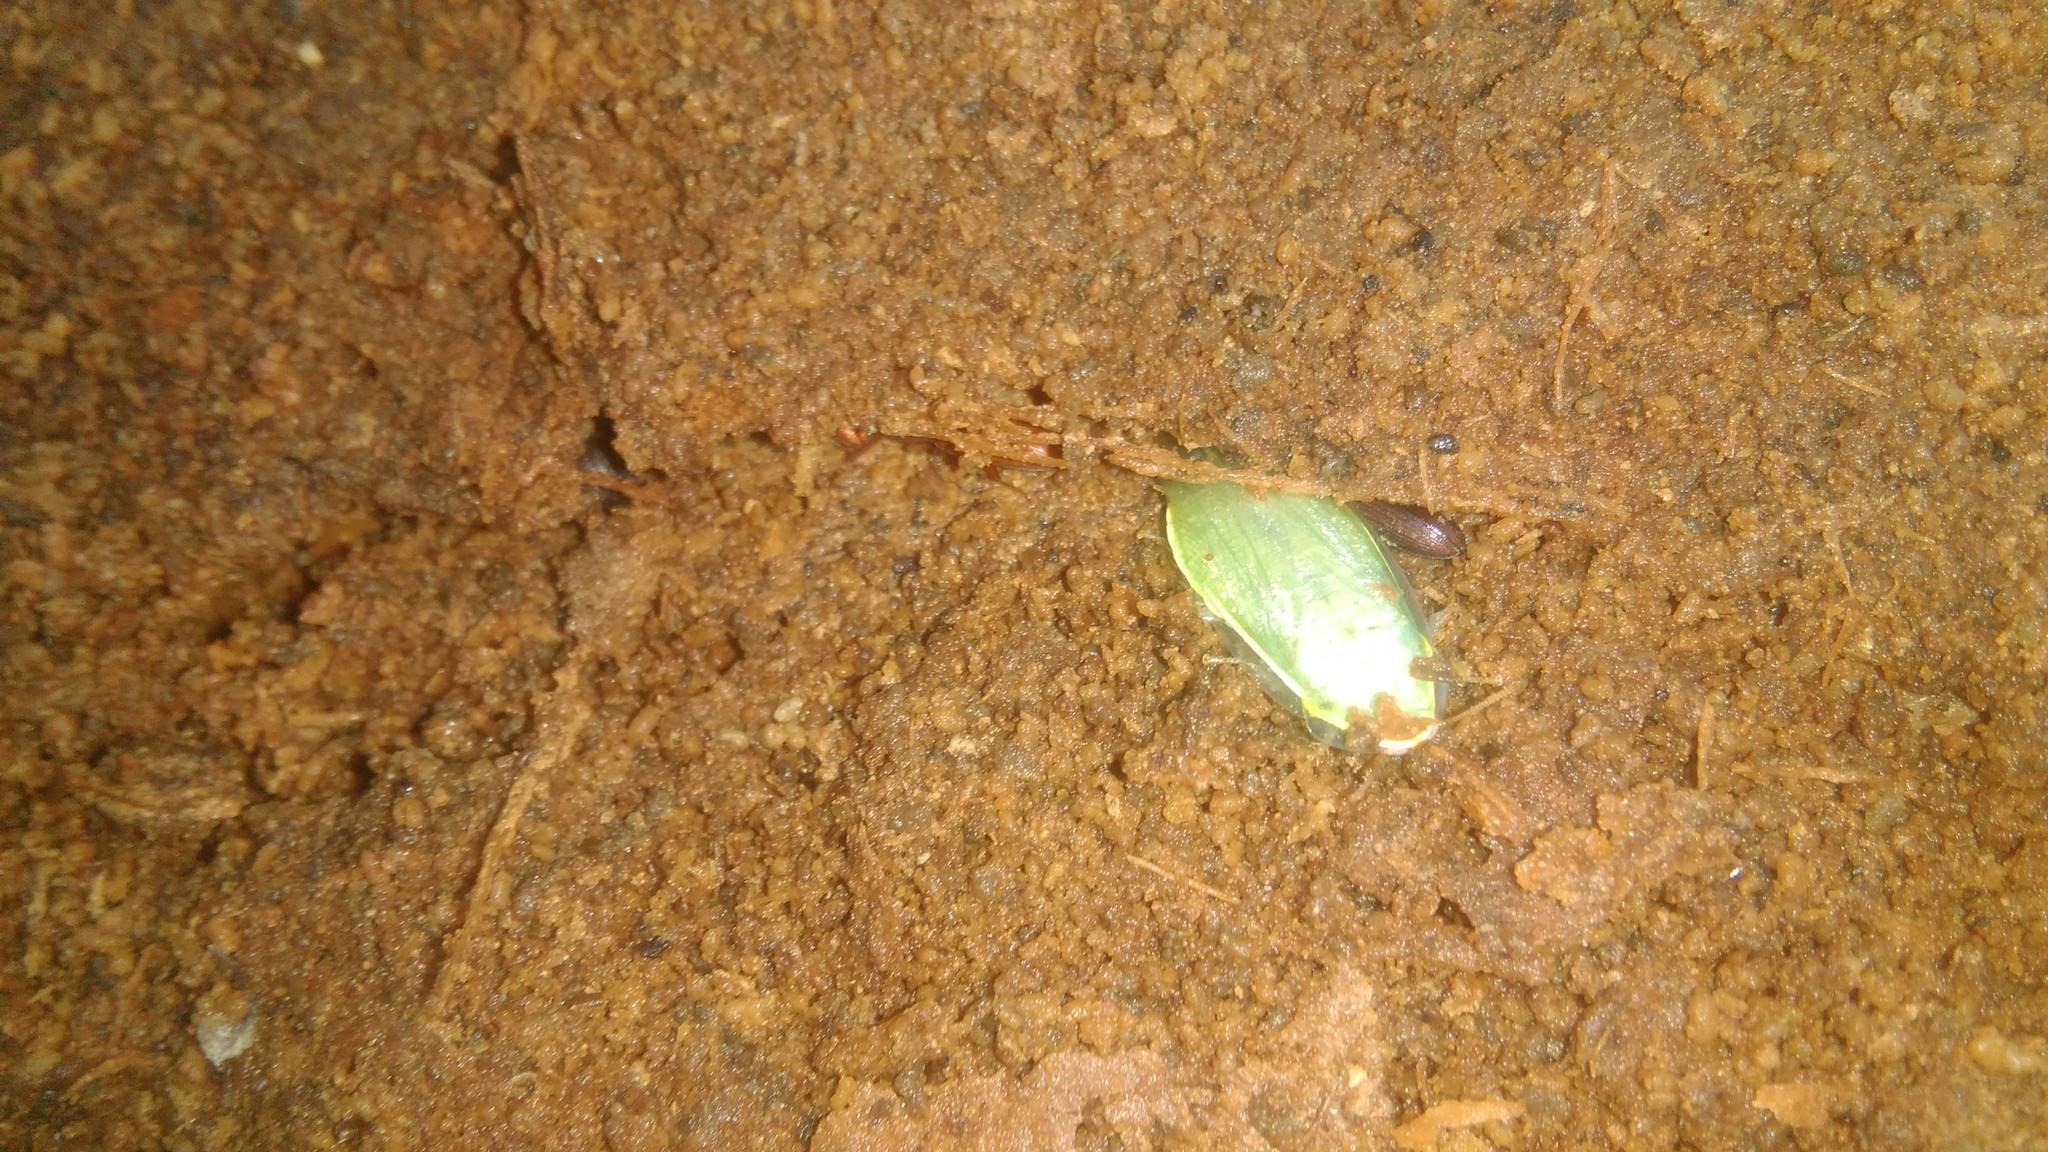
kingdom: Animalia
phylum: Arthropoda
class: Insecta
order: Blattodea
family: Blaberidae
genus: Panchlora
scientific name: Panchlora thalassina
